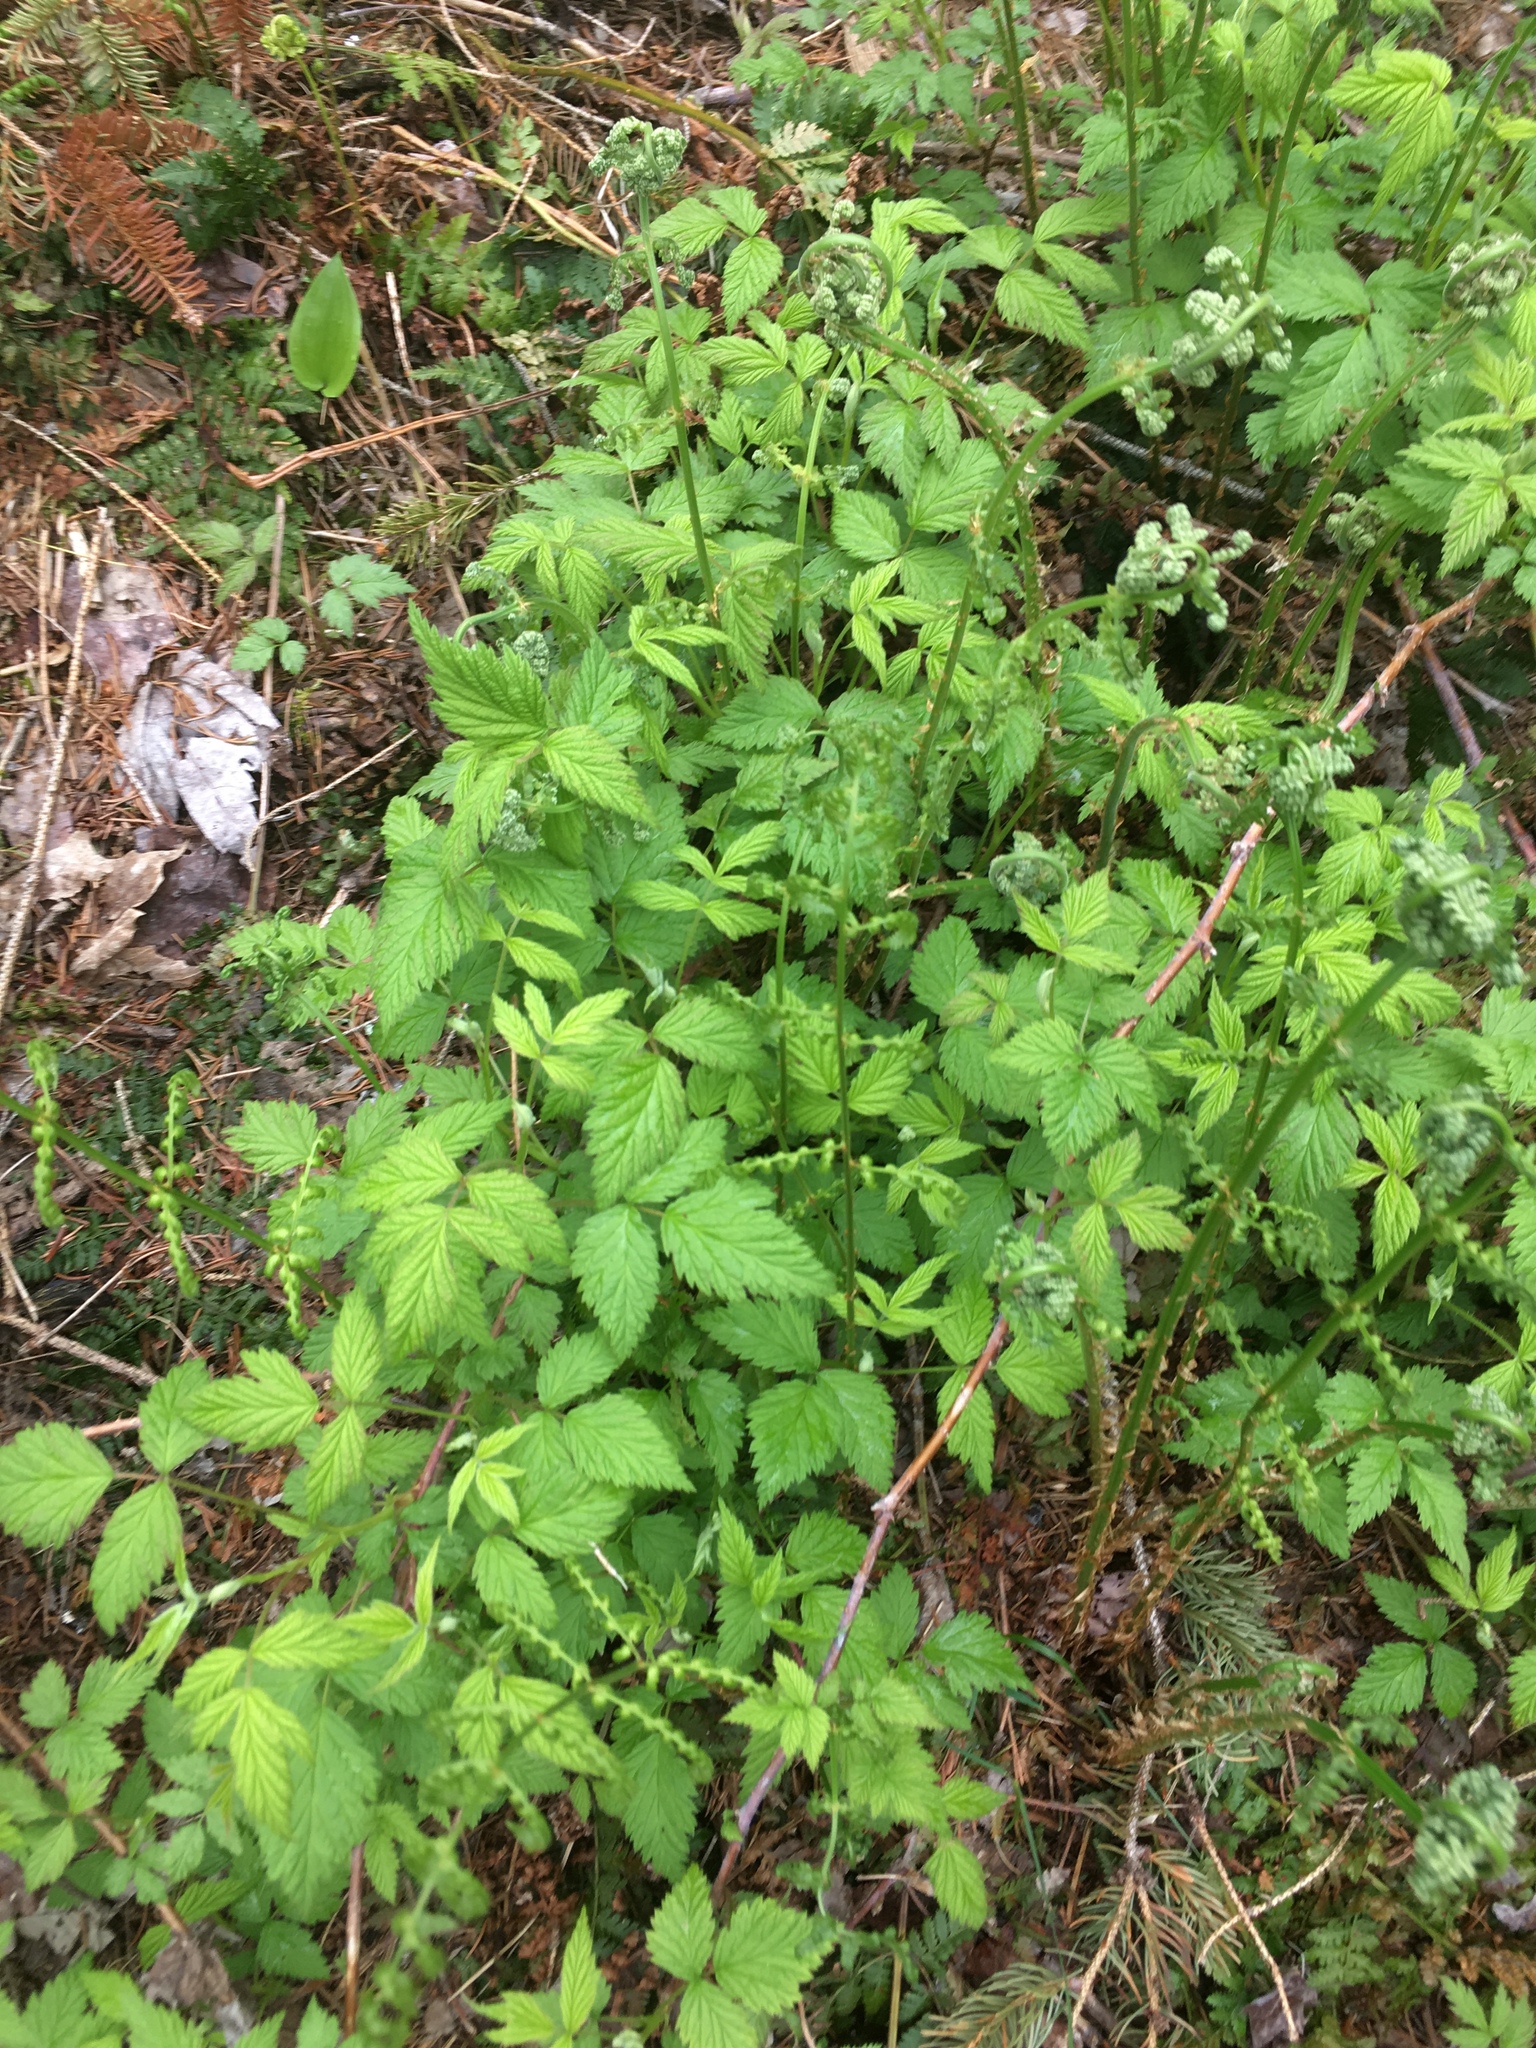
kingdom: Plantae
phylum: Tracheophyta
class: Magnoliopsida
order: Rosales
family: Rosaceae
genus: Rubus
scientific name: Rubus occidentalis
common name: Black raspberry
